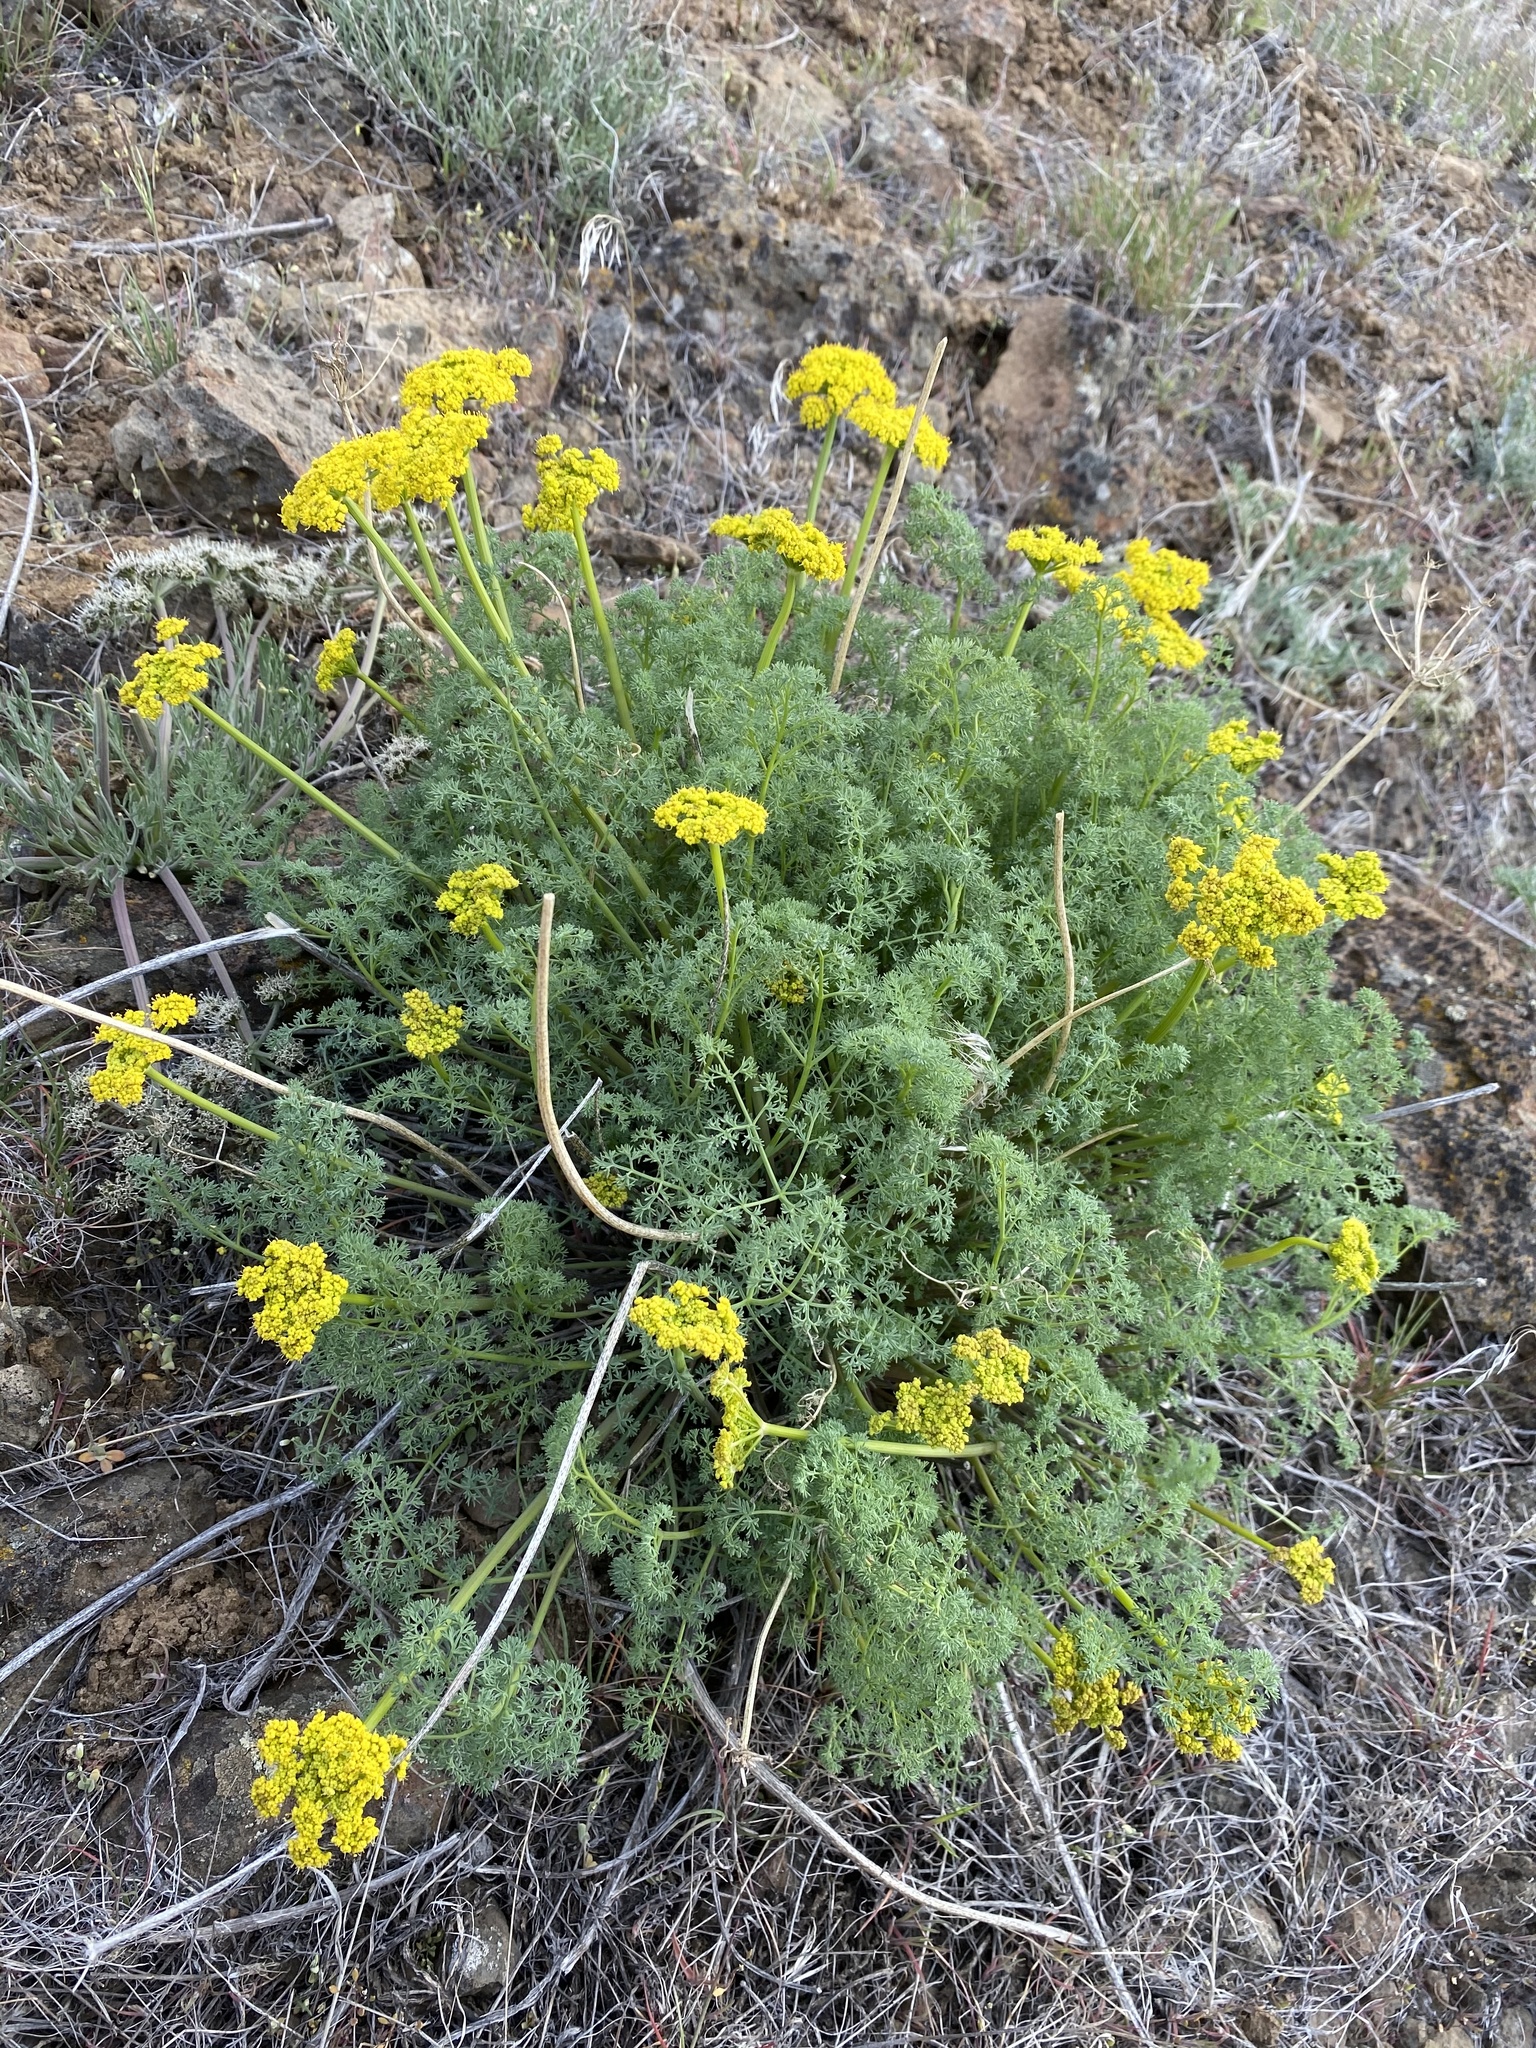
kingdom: Plantae
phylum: Tracheophyta
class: Magnoliopsida
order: Apiales
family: Apiaceae
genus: Lomatium
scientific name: Lomatium papilioniferum
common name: Butterfly lomatium
